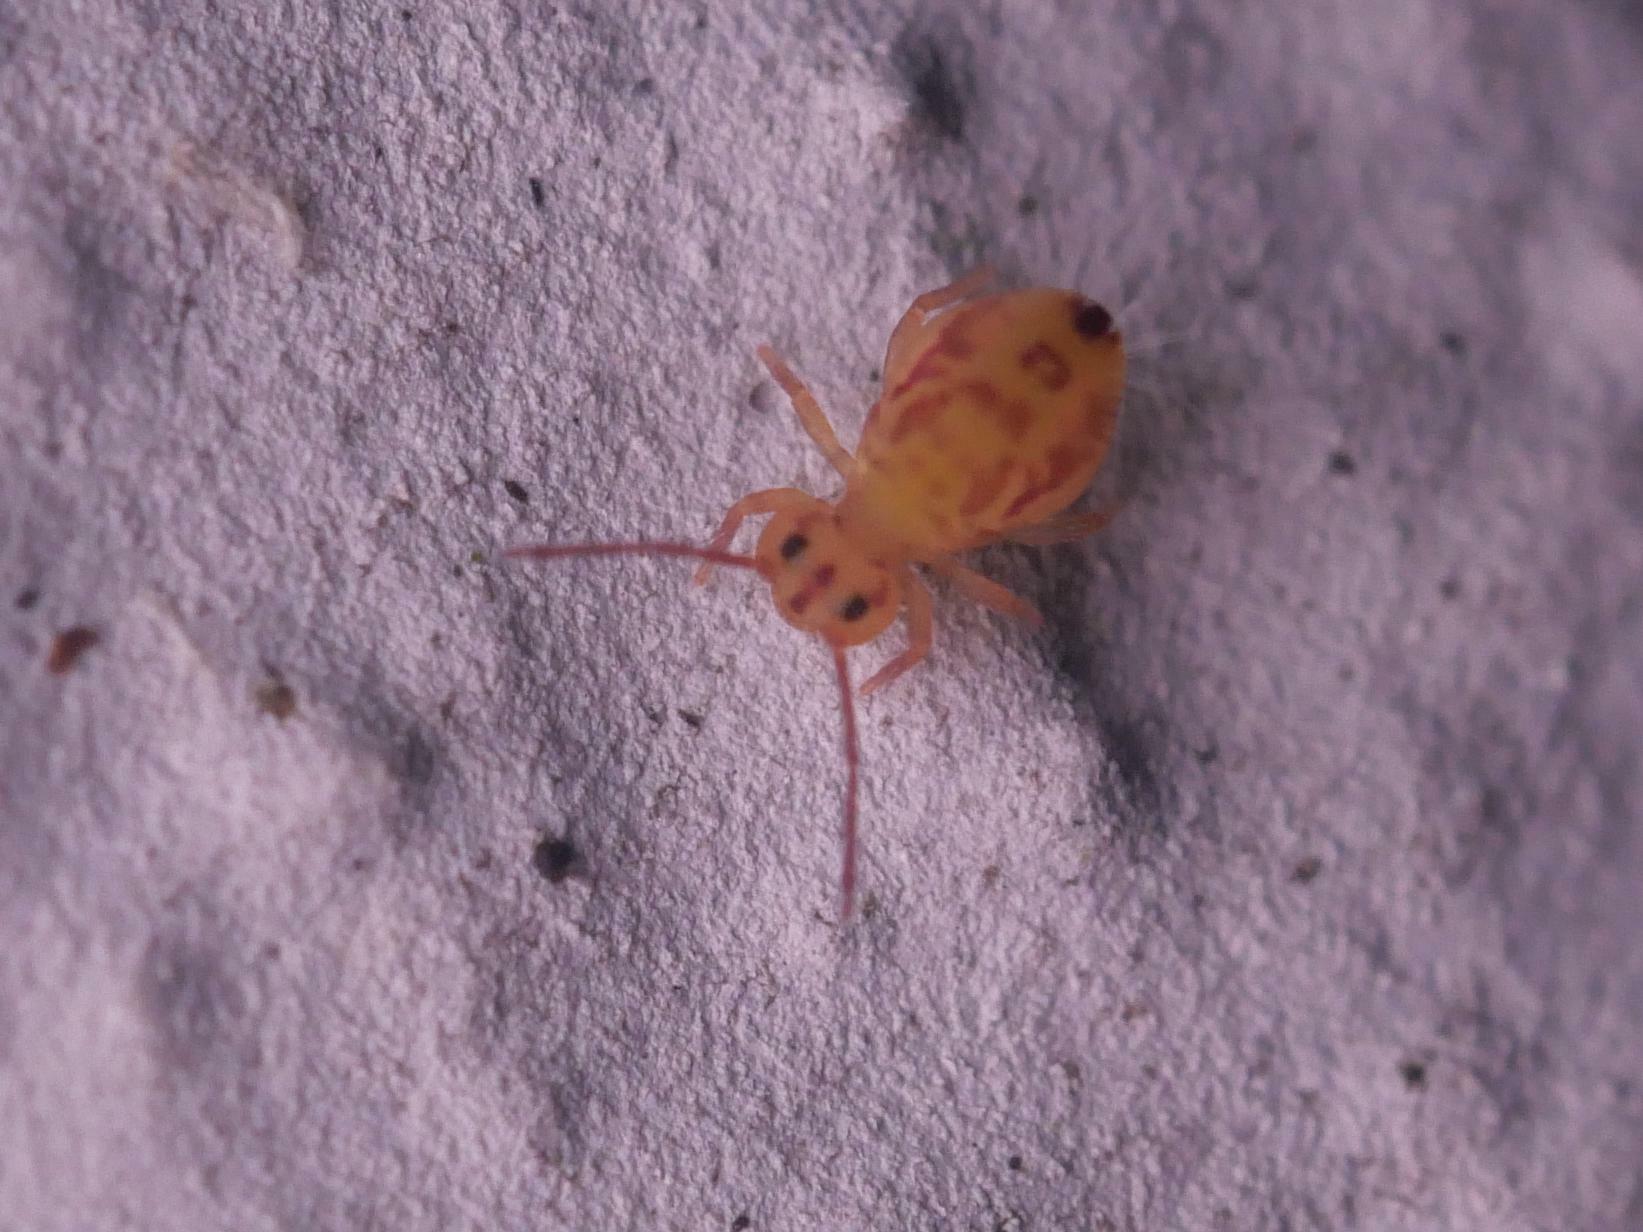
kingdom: Animalia
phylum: Arthropoda
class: Collembola
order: Symphypleona
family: Dicyrtomidae
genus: Dicyrtomina
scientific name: Dicyrtomina ornata
